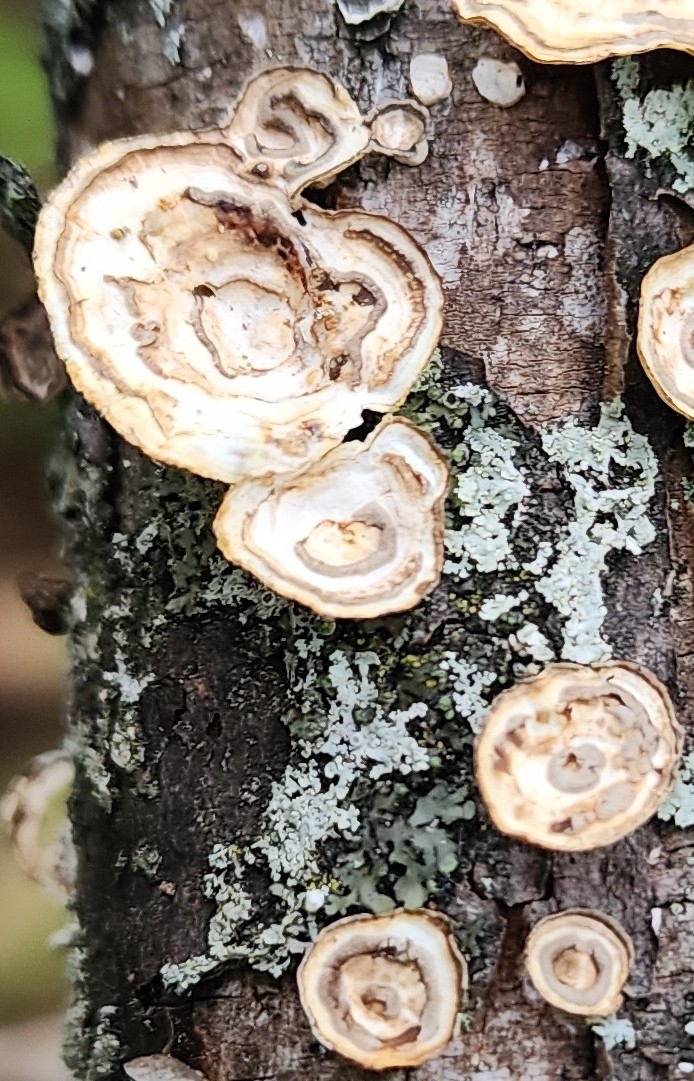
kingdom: Fungi
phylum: Basidiomycota
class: Agaricomycetes
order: Polyporales
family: Polyporaceae
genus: Poronidulus
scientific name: Poronidulus conchifer
